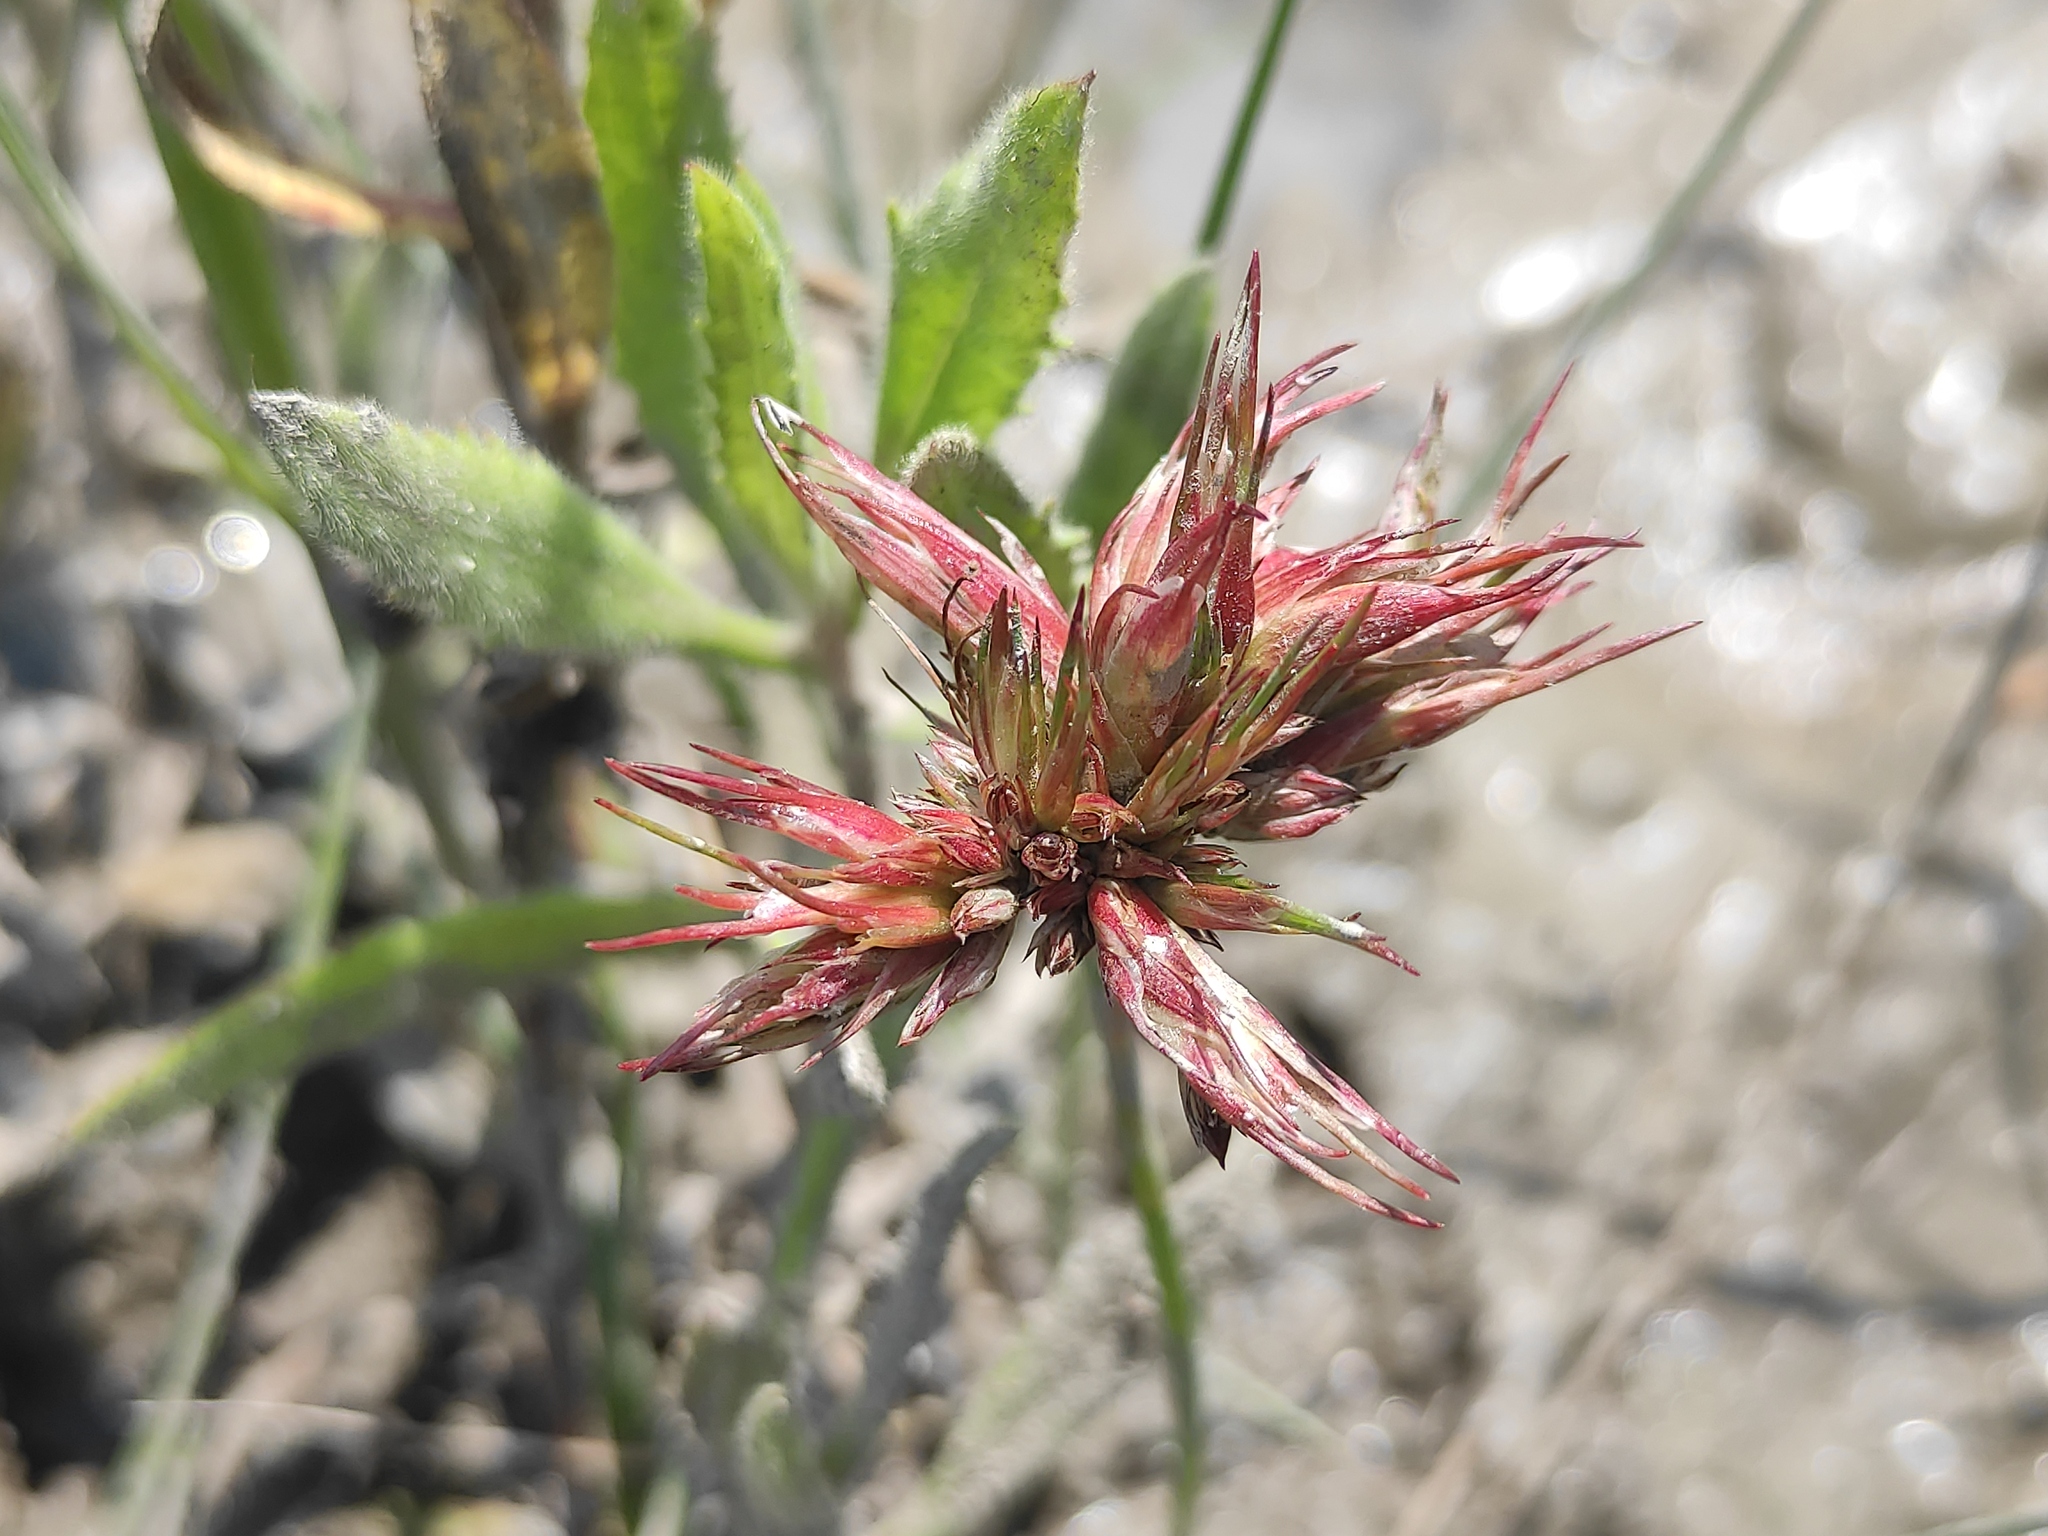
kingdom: Animalia
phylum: Arthropoda
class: Insecta
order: Hemiptera
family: Liviidae
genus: Livia
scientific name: Livia junci
